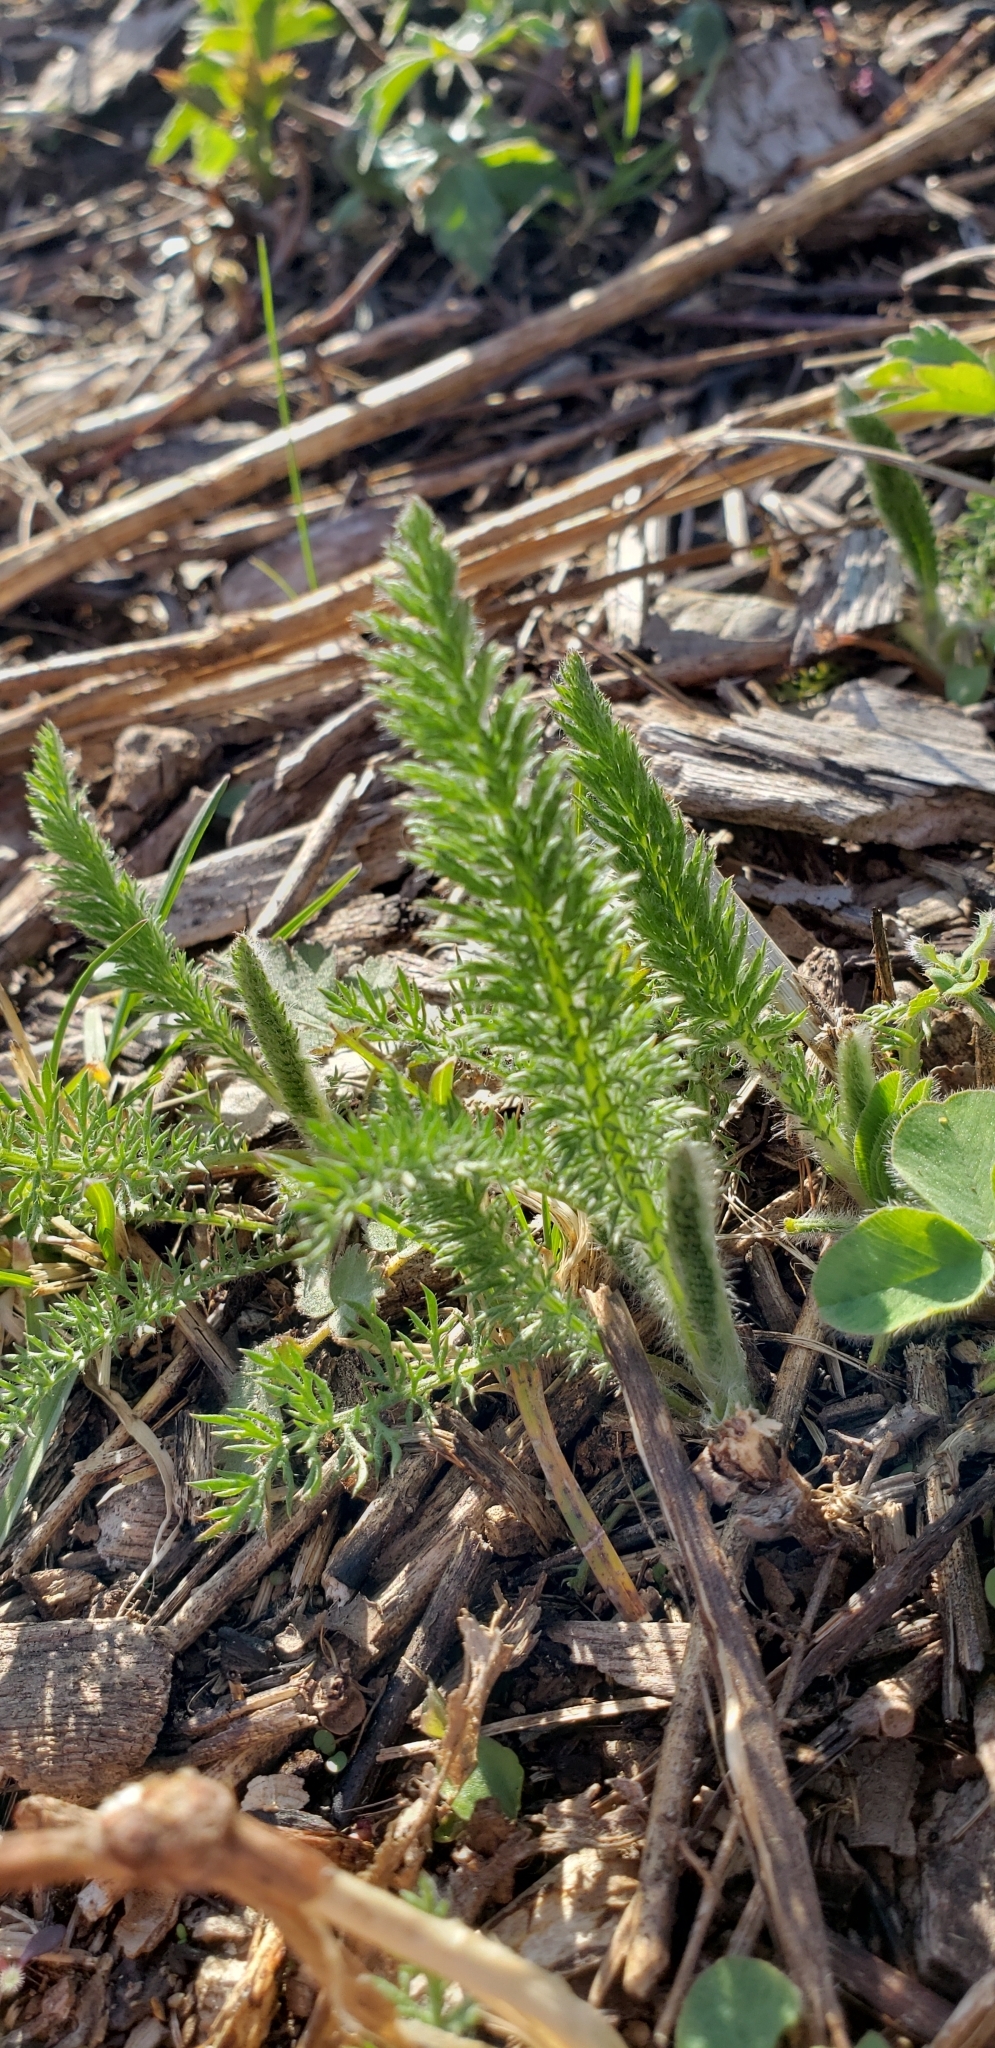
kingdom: Plantae
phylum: Tracheophyta
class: Magnoliopsida
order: Asterales
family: Asteraceae
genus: Achillea
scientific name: Achillea millefolium
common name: Yarrow
